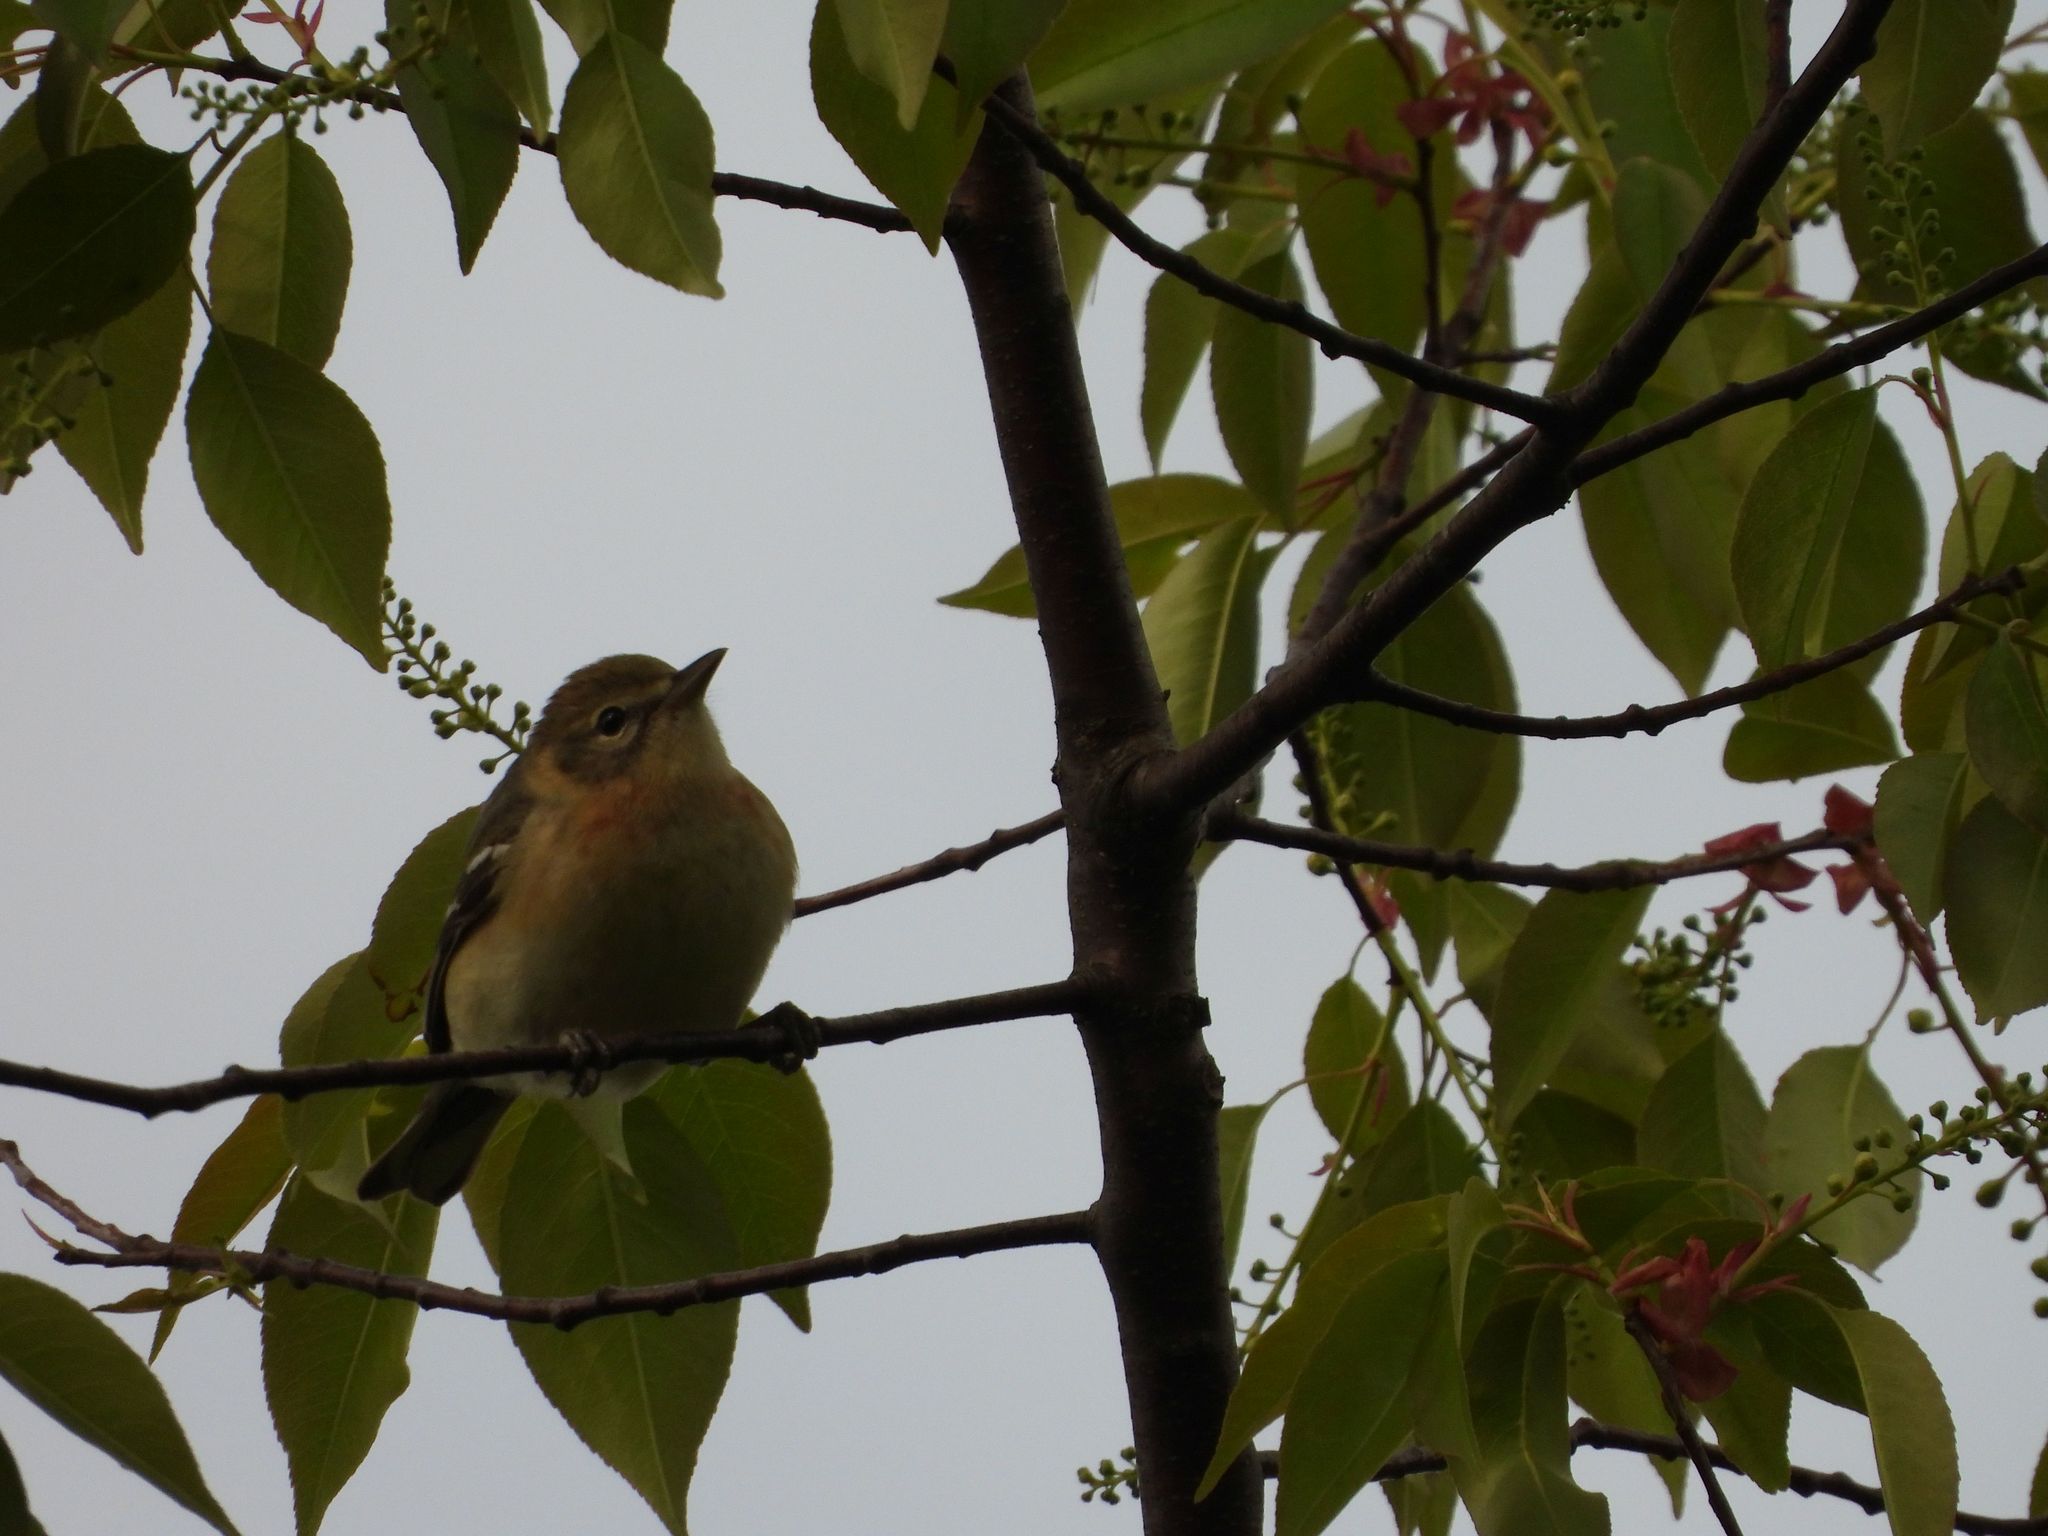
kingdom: Animalia
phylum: Chordata
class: Aves
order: Passeriformes
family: Parulidae
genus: Setophaga
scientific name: Setophaga castanea
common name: Bay-breasted warbler
